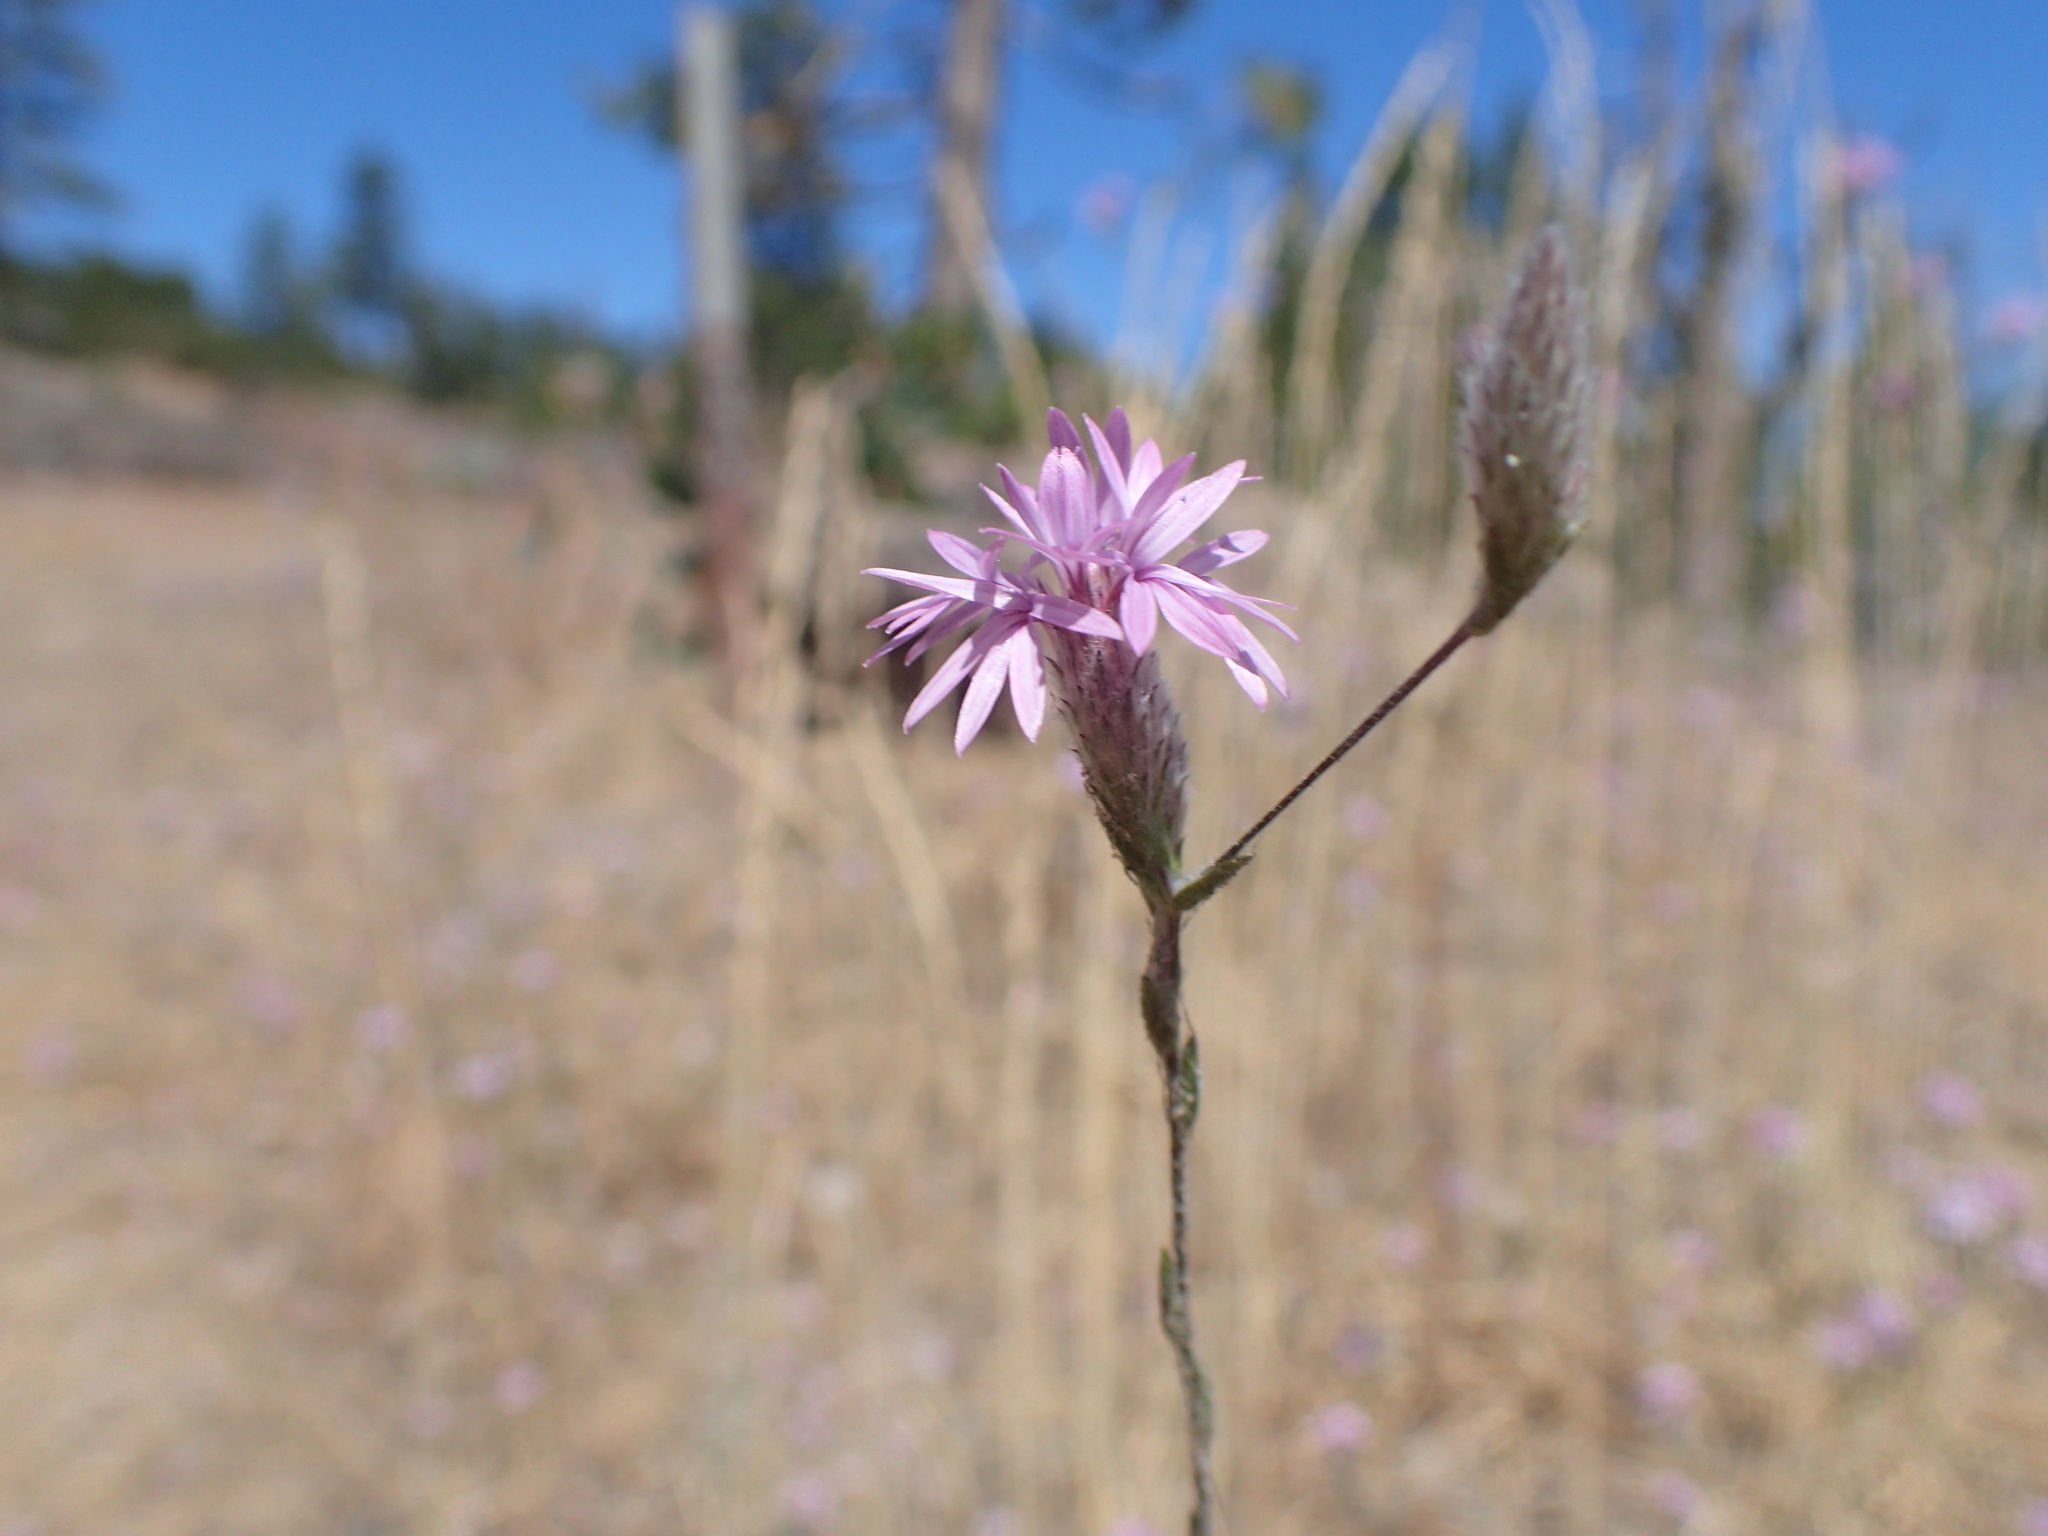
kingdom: Plantae
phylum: Tracheophyta
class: Magnoliopsida
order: Asterales
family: Asteraceae
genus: Lessingia
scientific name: Lessingia leptoclada
